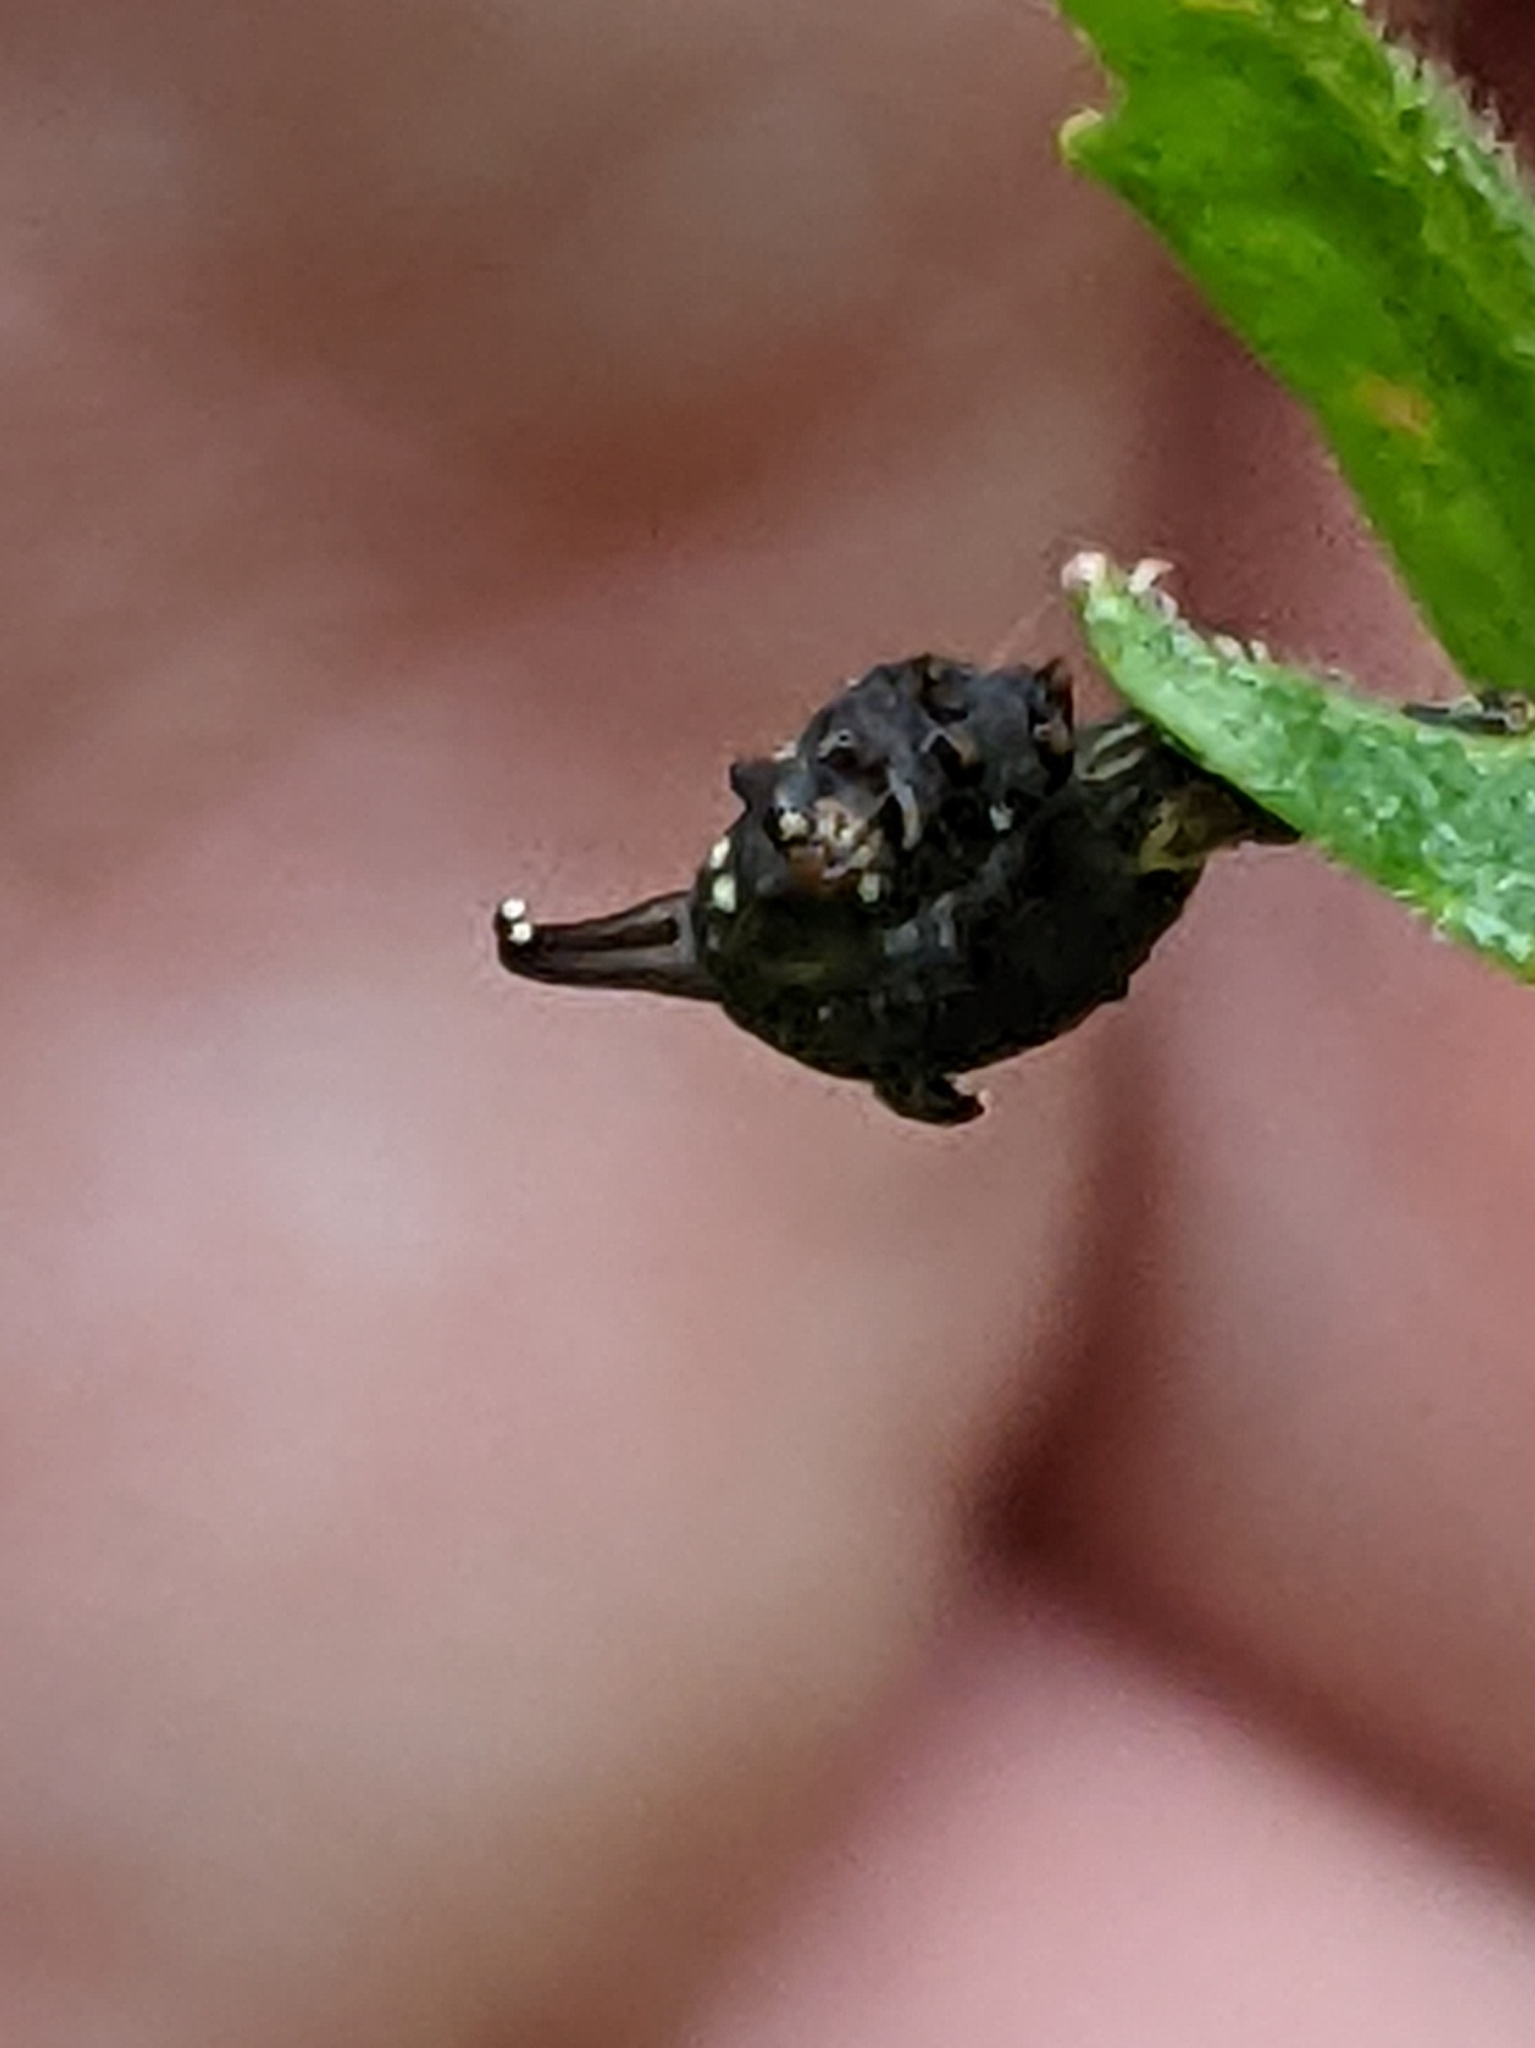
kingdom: Animalia
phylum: Arthropoda
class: Insecta
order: Lepidoptera
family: Geometridae
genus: Nematocampa
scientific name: Nematocampa resistaria
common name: Horned spanworm moth
